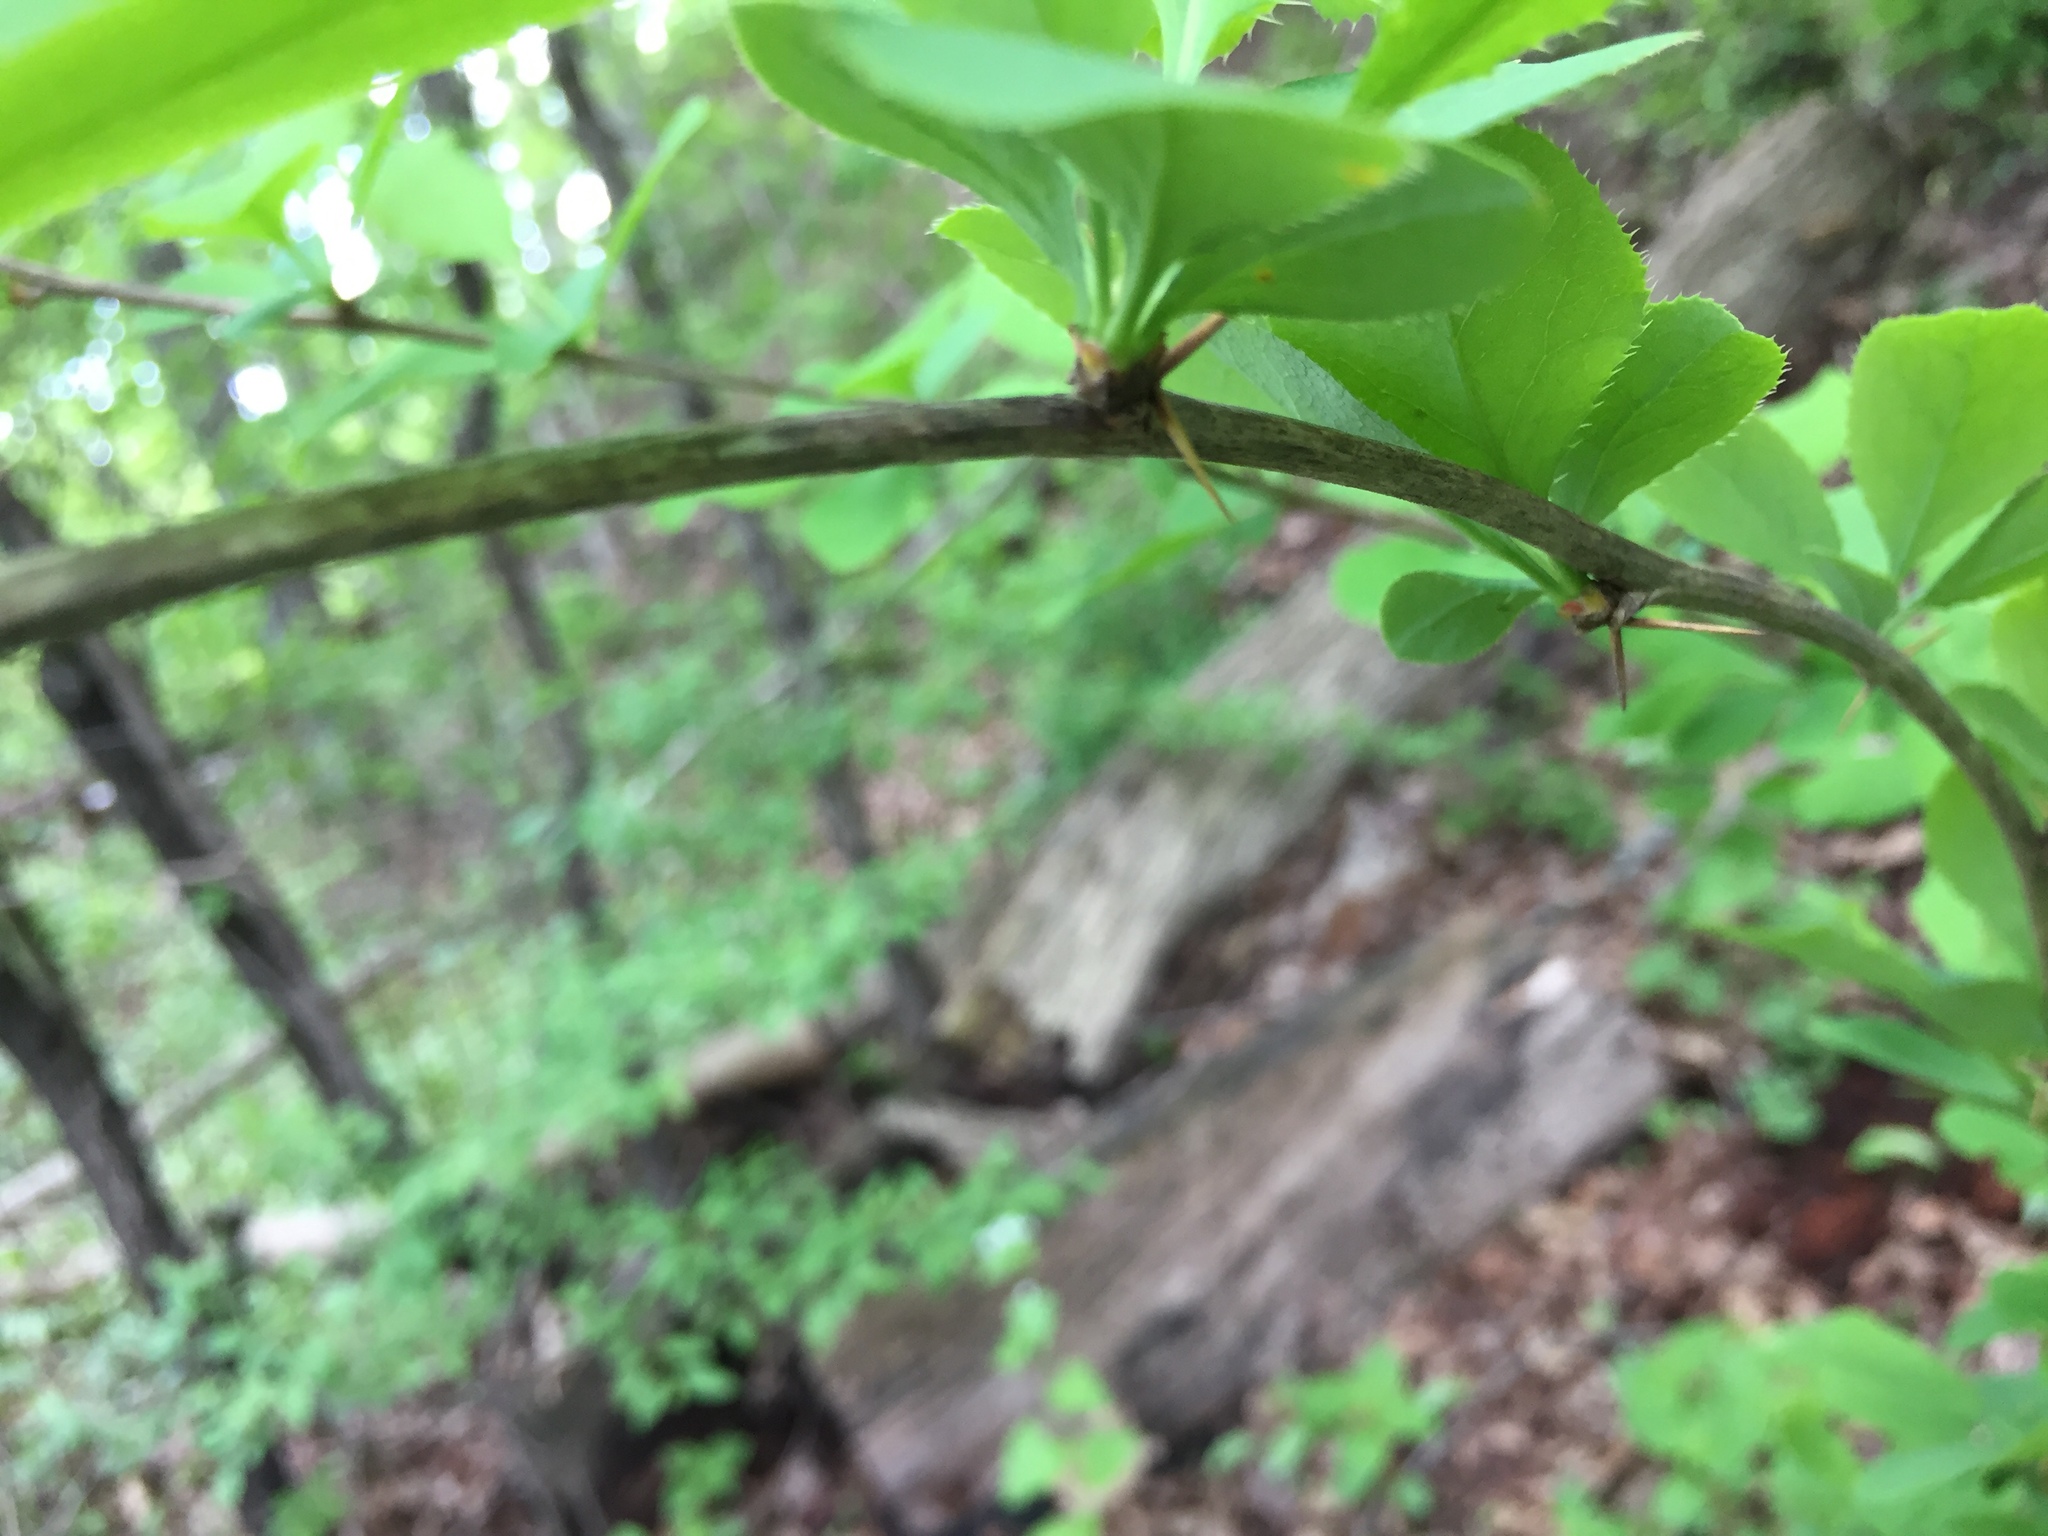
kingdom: Plantae
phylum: Tracheophyta
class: Magnoliopsida
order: Ranunculales
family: Berberidaceae
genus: Berberis
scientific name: Berberis vulgaris
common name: Barberry
